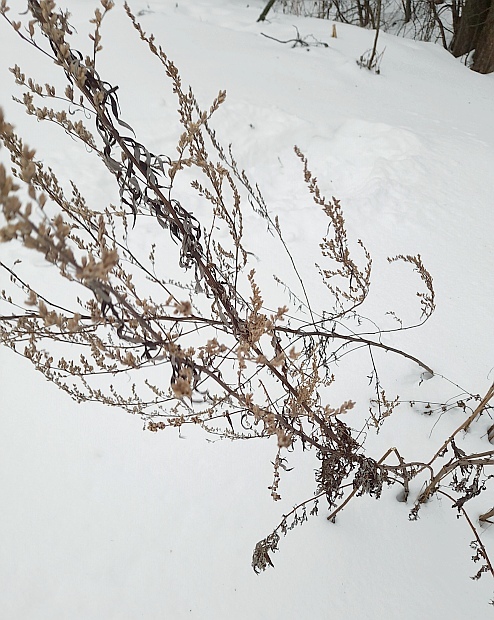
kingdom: Plantae
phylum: Tracheophyta
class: Magnoliopsida
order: Asterales
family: Asteraceae
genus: Artemisia
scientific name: Artemisia vulgaris
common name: Mugwort
